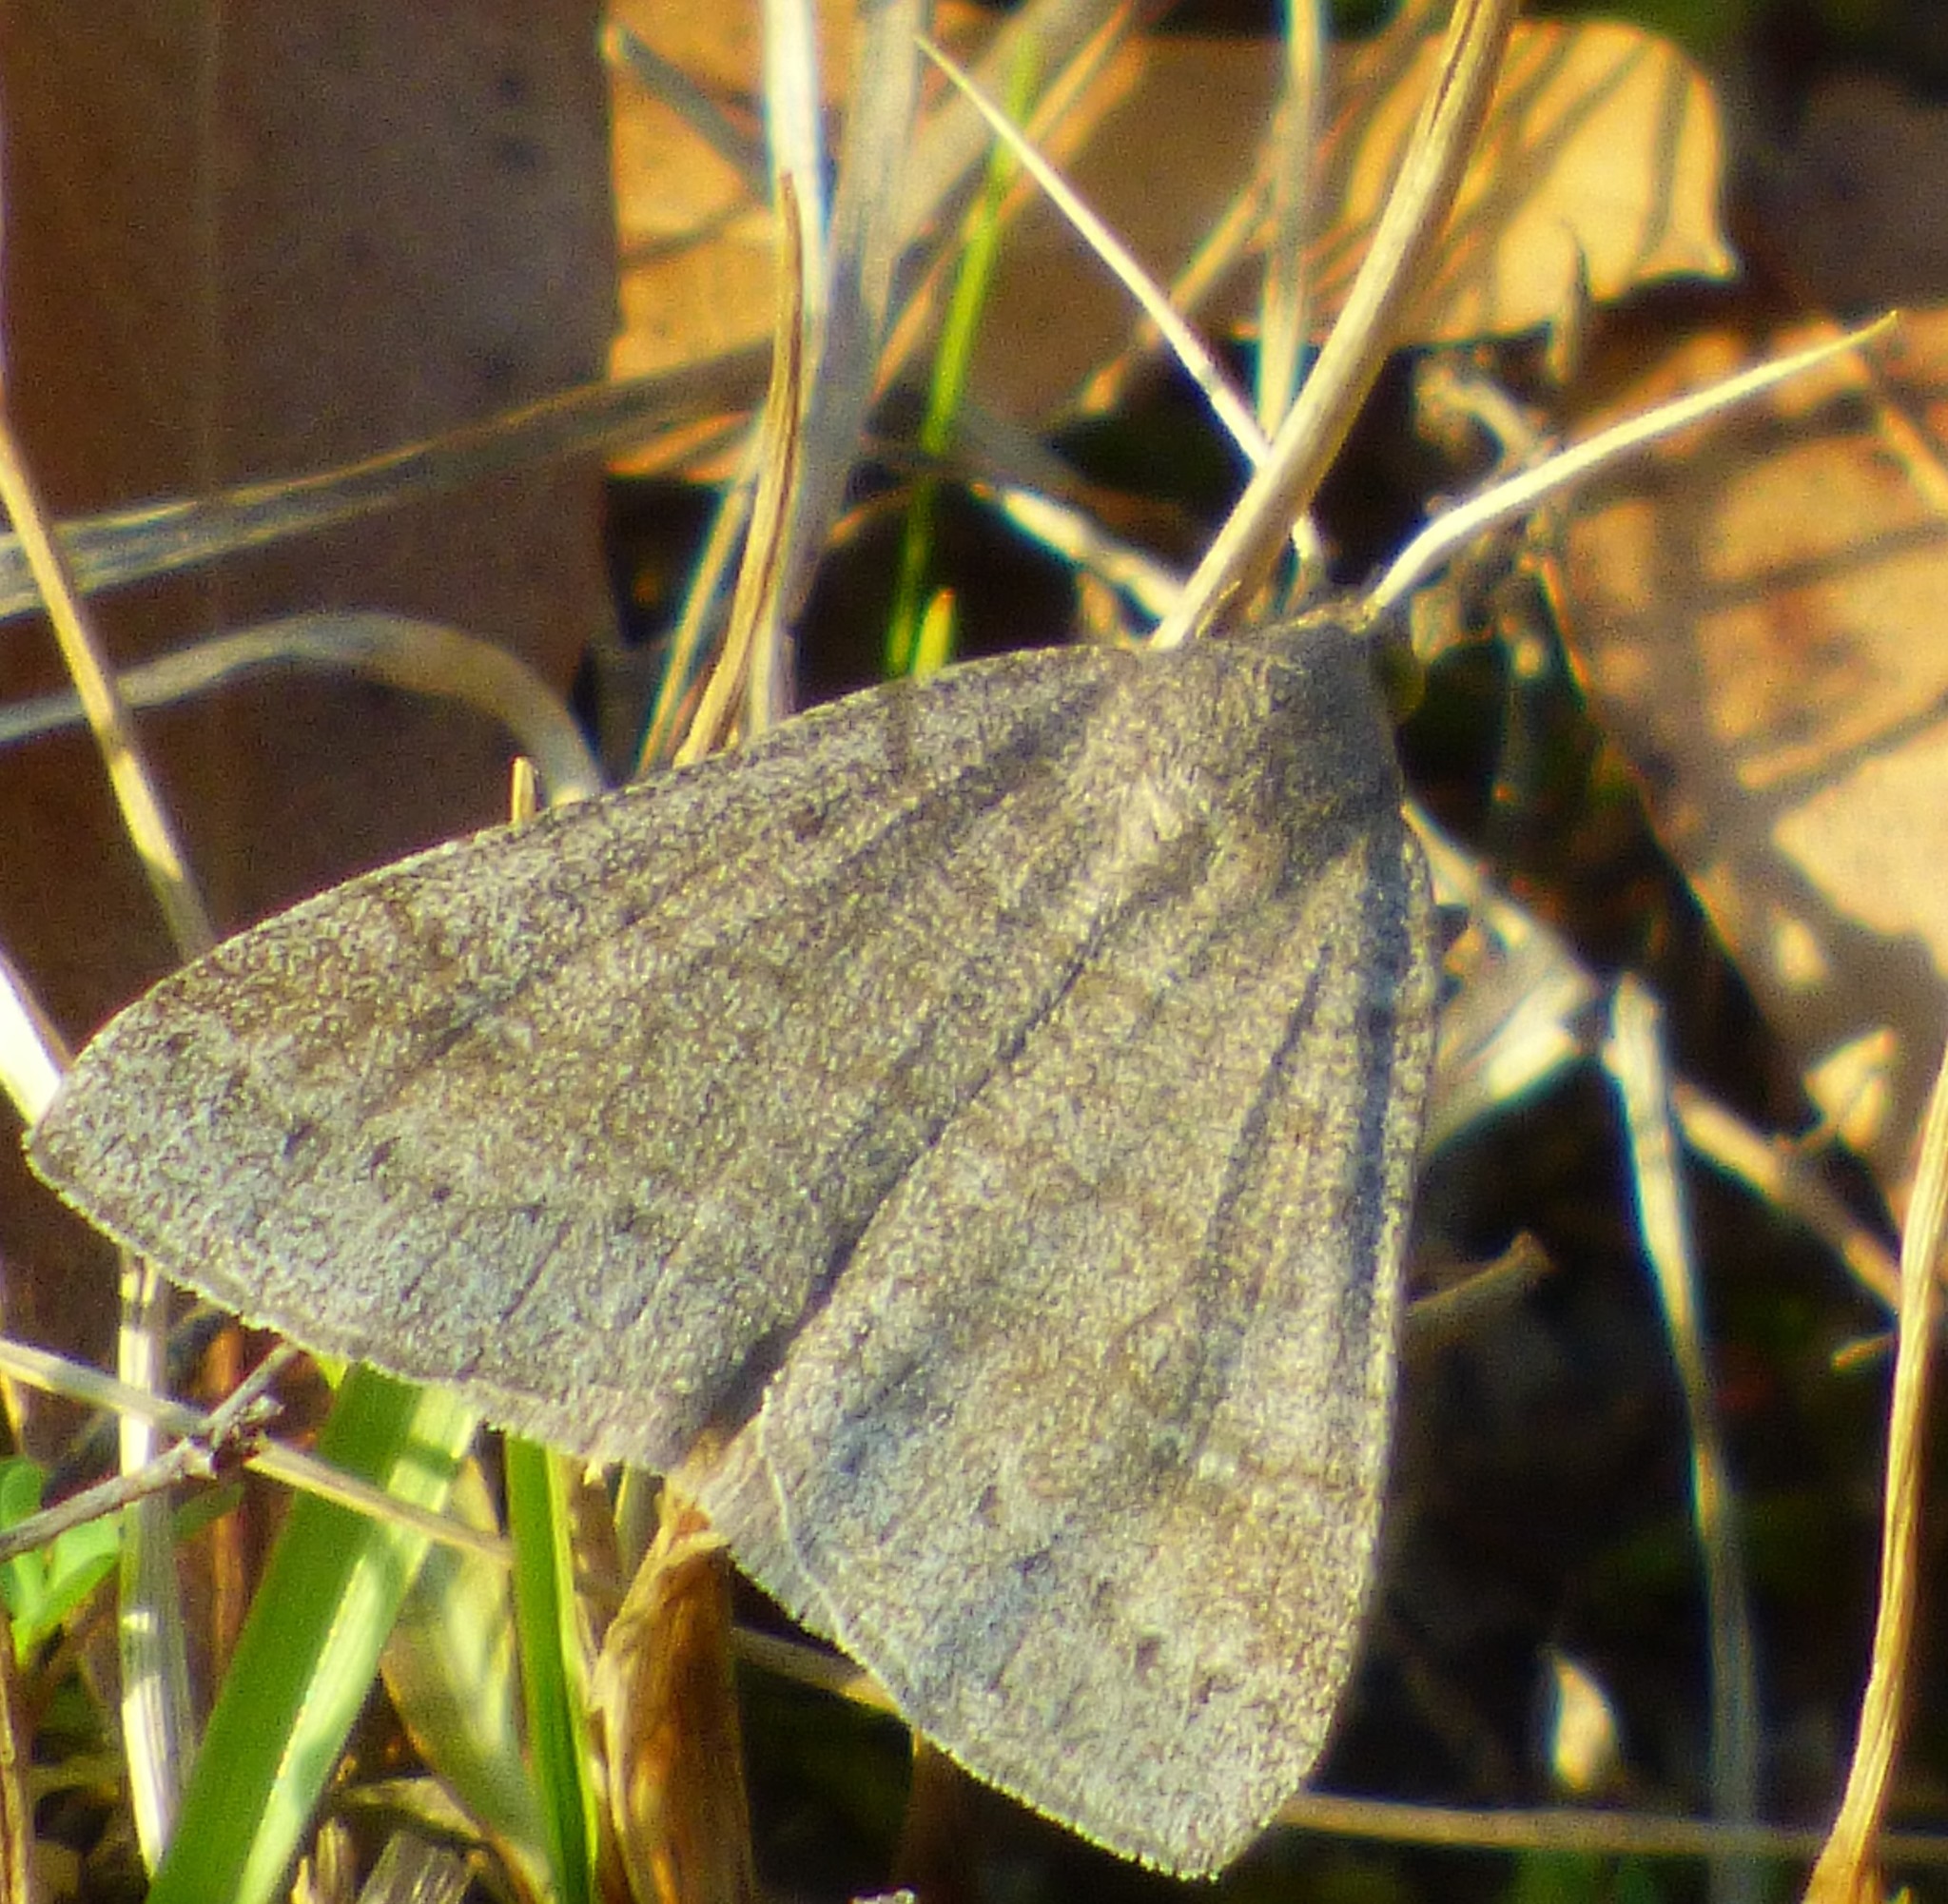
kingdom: Animalia
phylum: Arthropoda
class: Insecta
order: Lepidoptera
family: Erebidae
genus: Caenurgia
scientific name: Caenurgia chloropha
